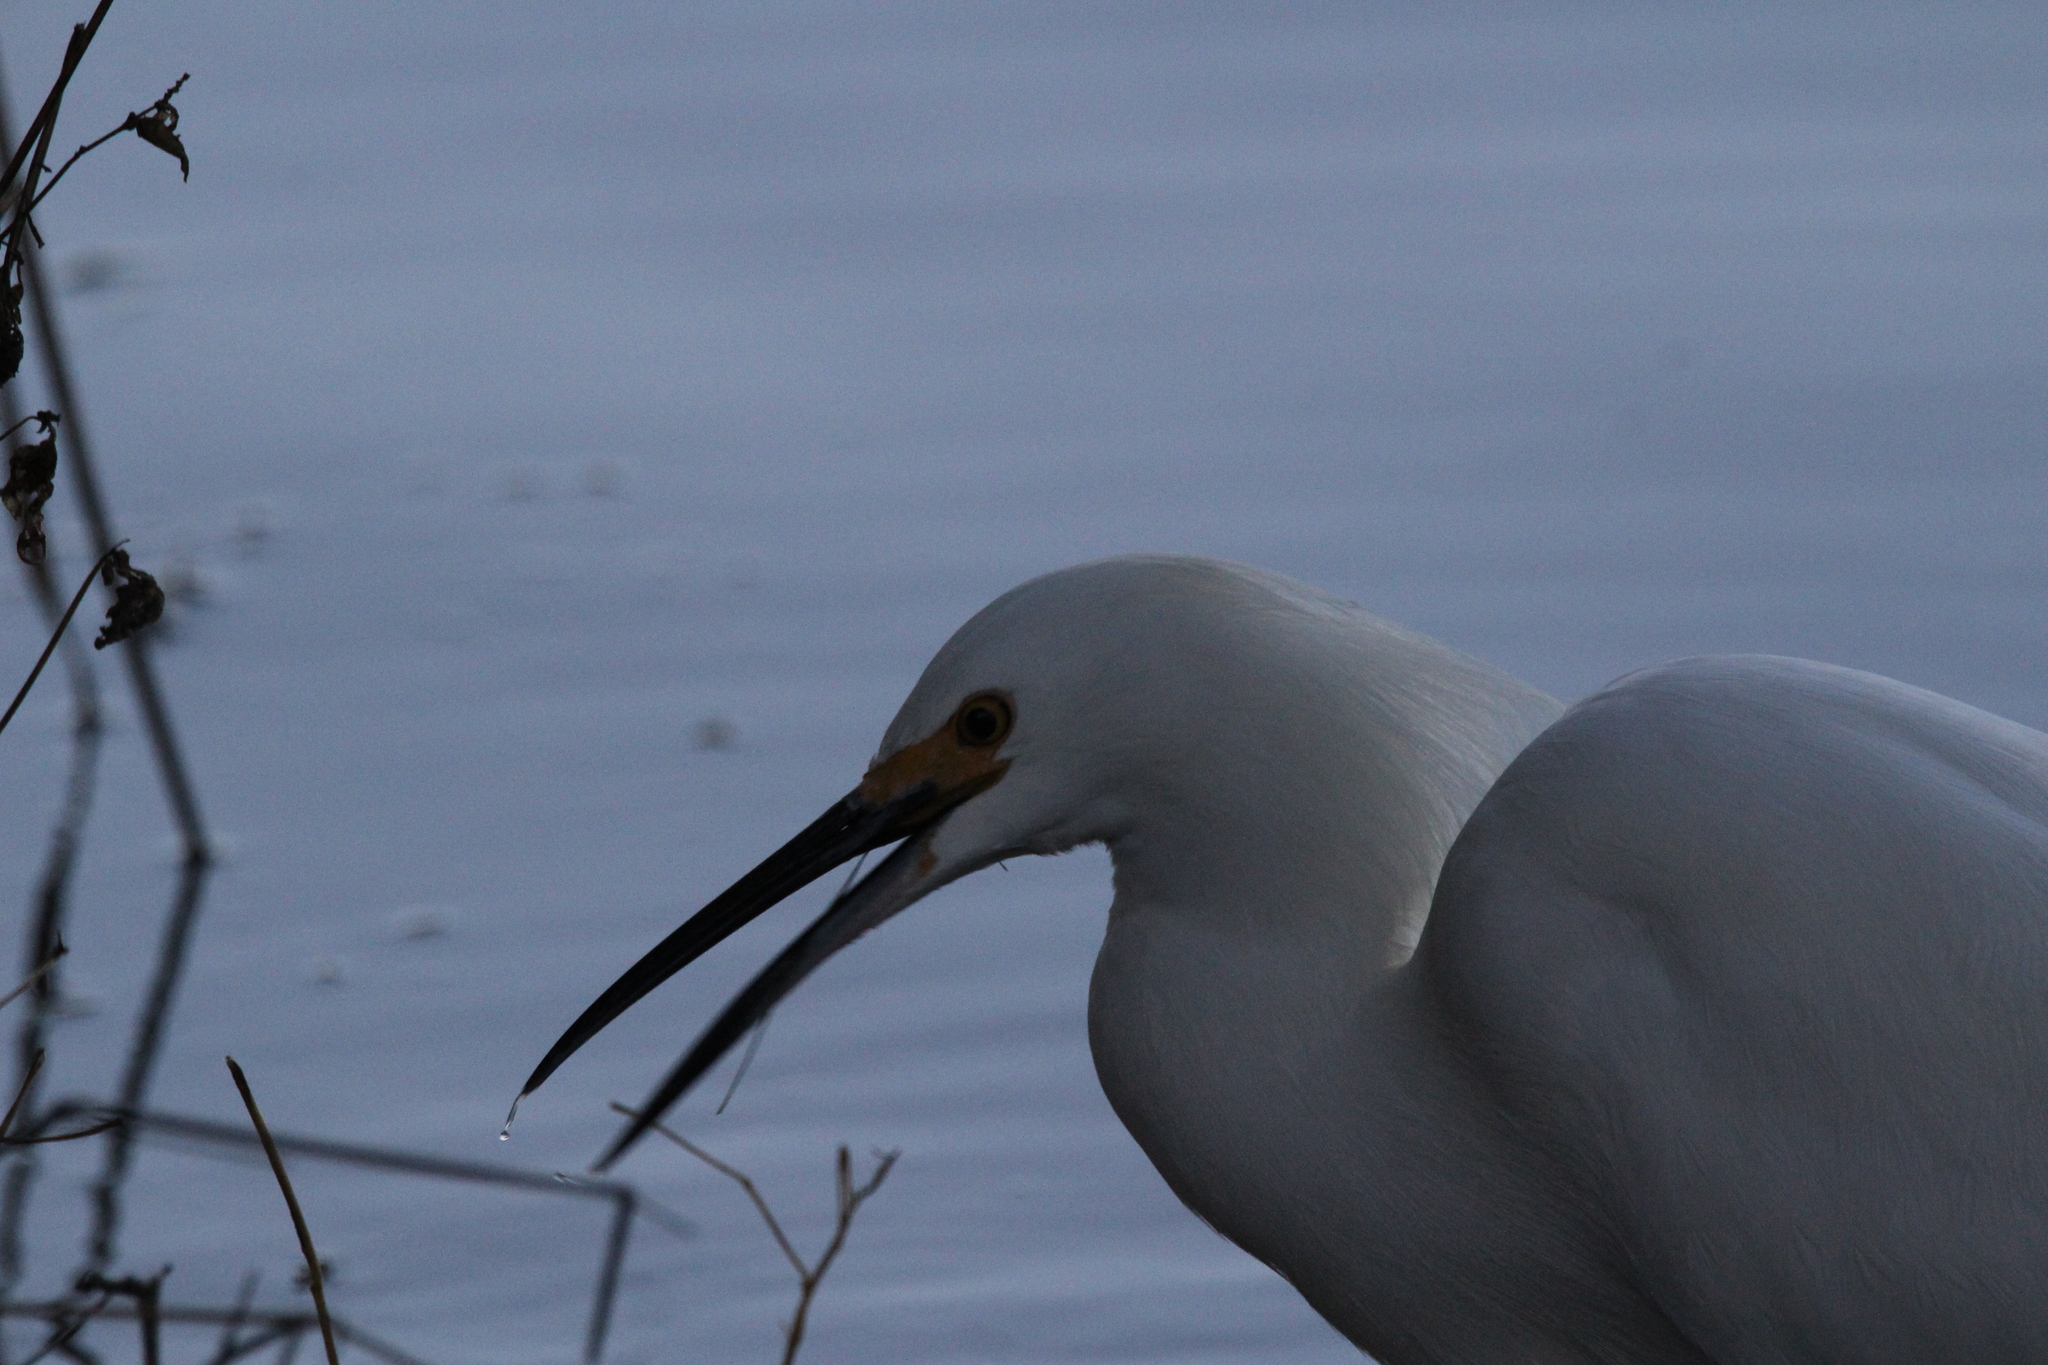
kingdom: Animalia
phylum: Chordata
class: Aves
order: Pelecaniformes
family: Ardeidae
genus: Egretta
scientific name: Egretta thula
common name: Snowy egret
